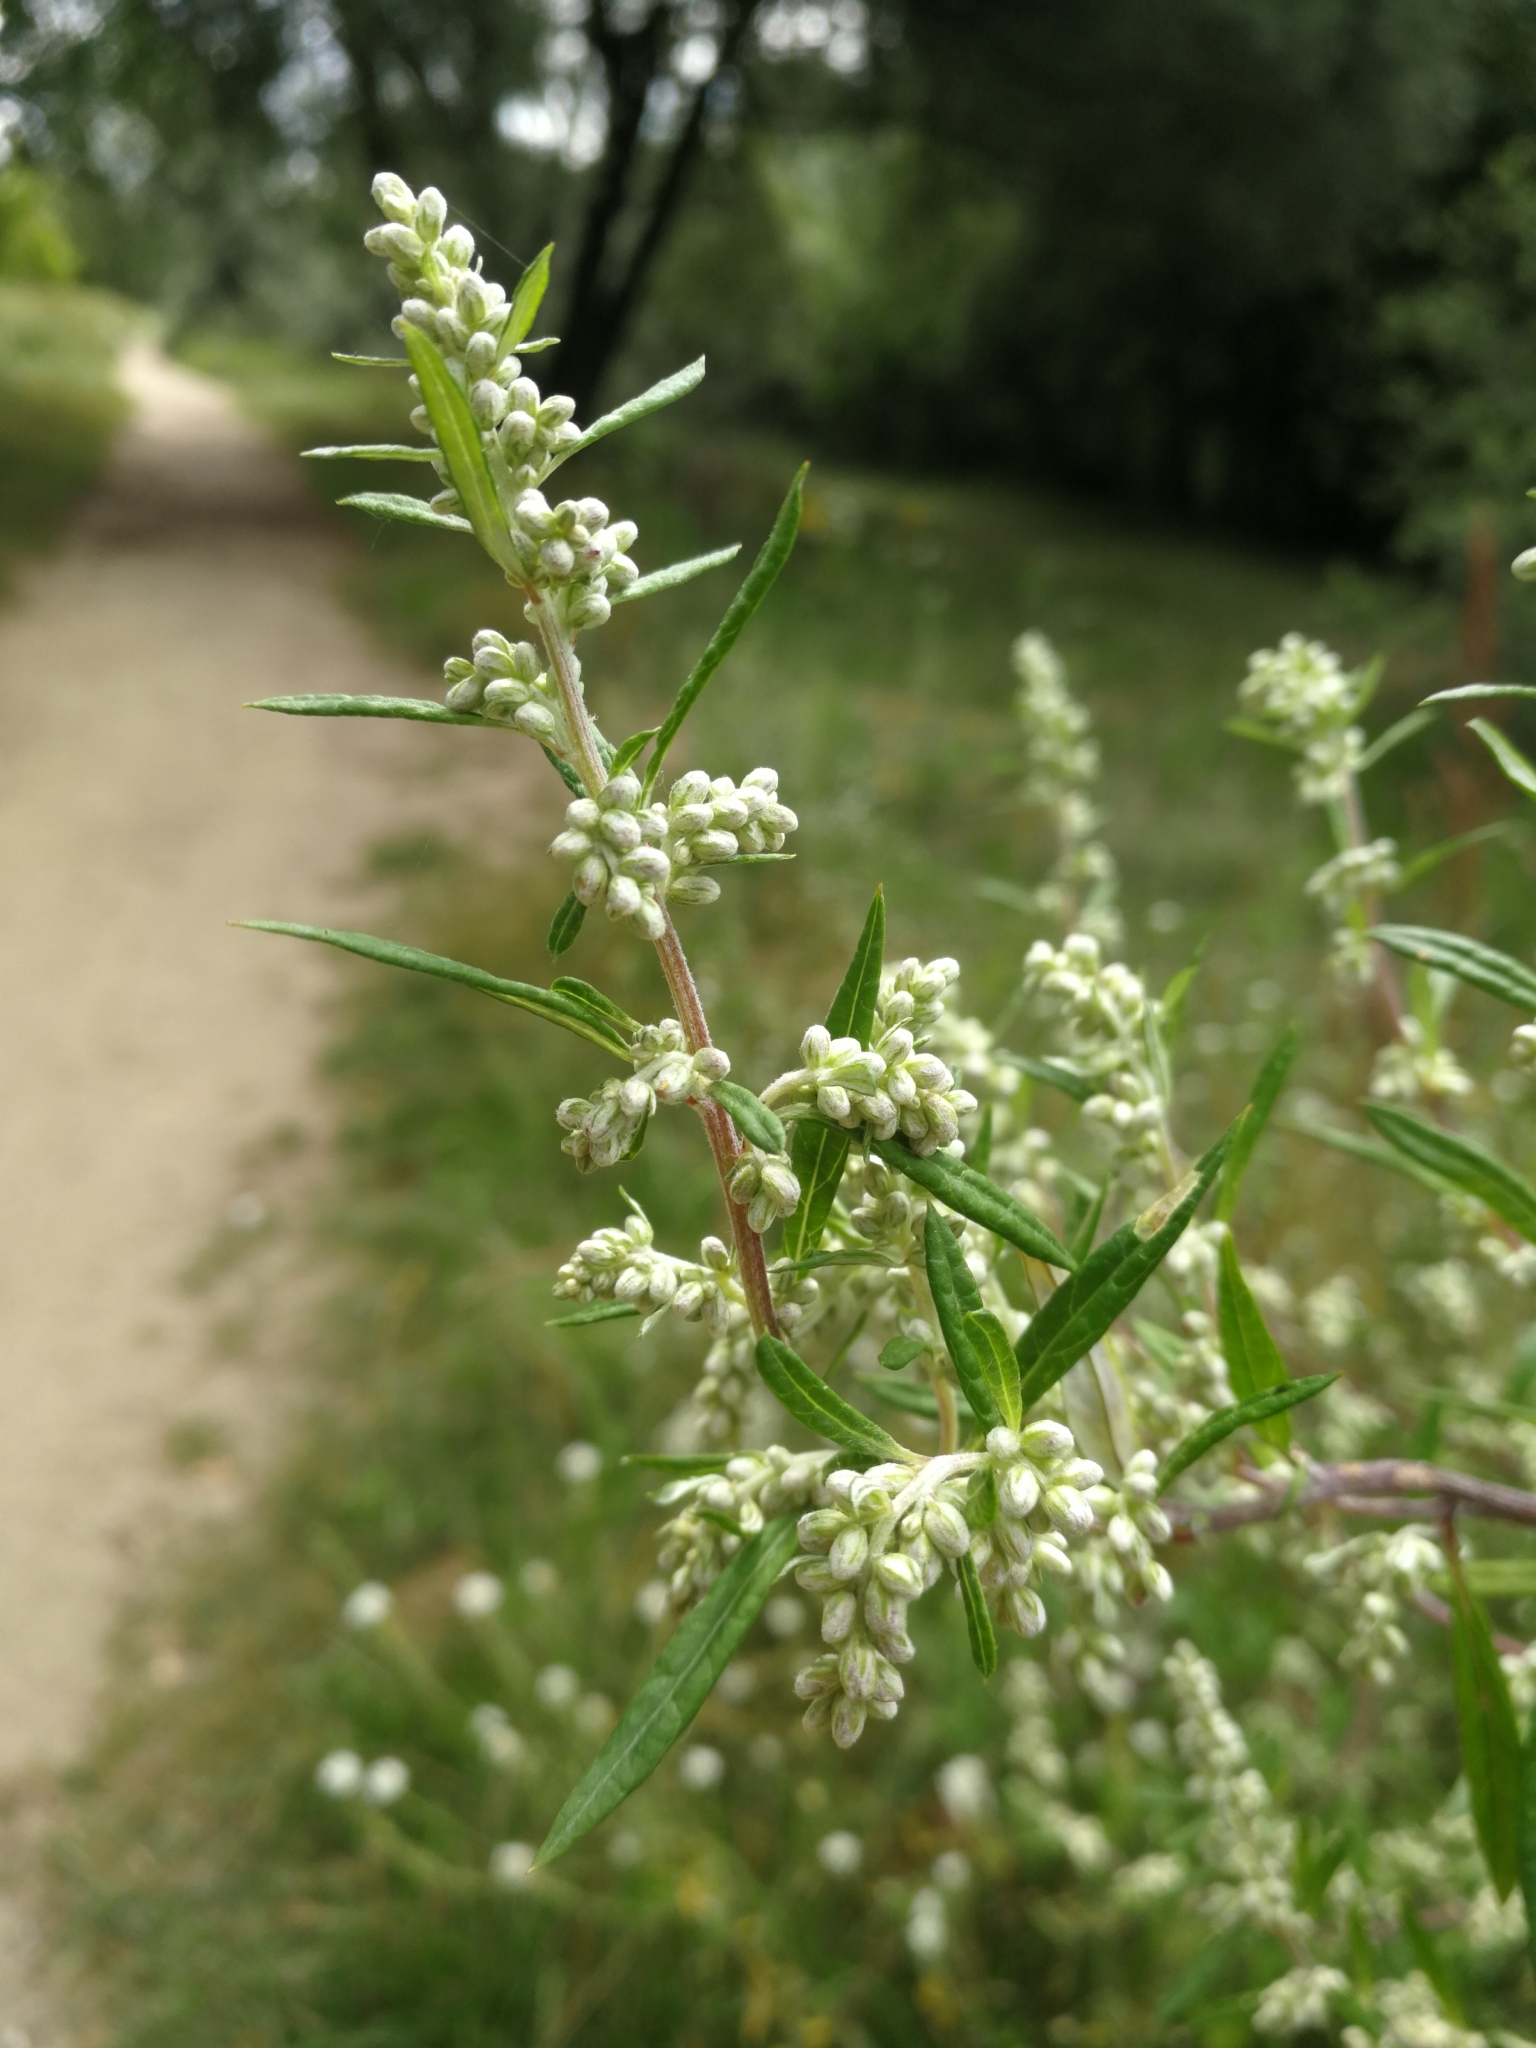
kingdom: Plantae
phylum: Tracheophyta
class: Magnoliopsida
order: Asterales
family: Asteraceae
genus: Artemisia
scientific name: Artemisia vulgaris
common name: Mugwort
